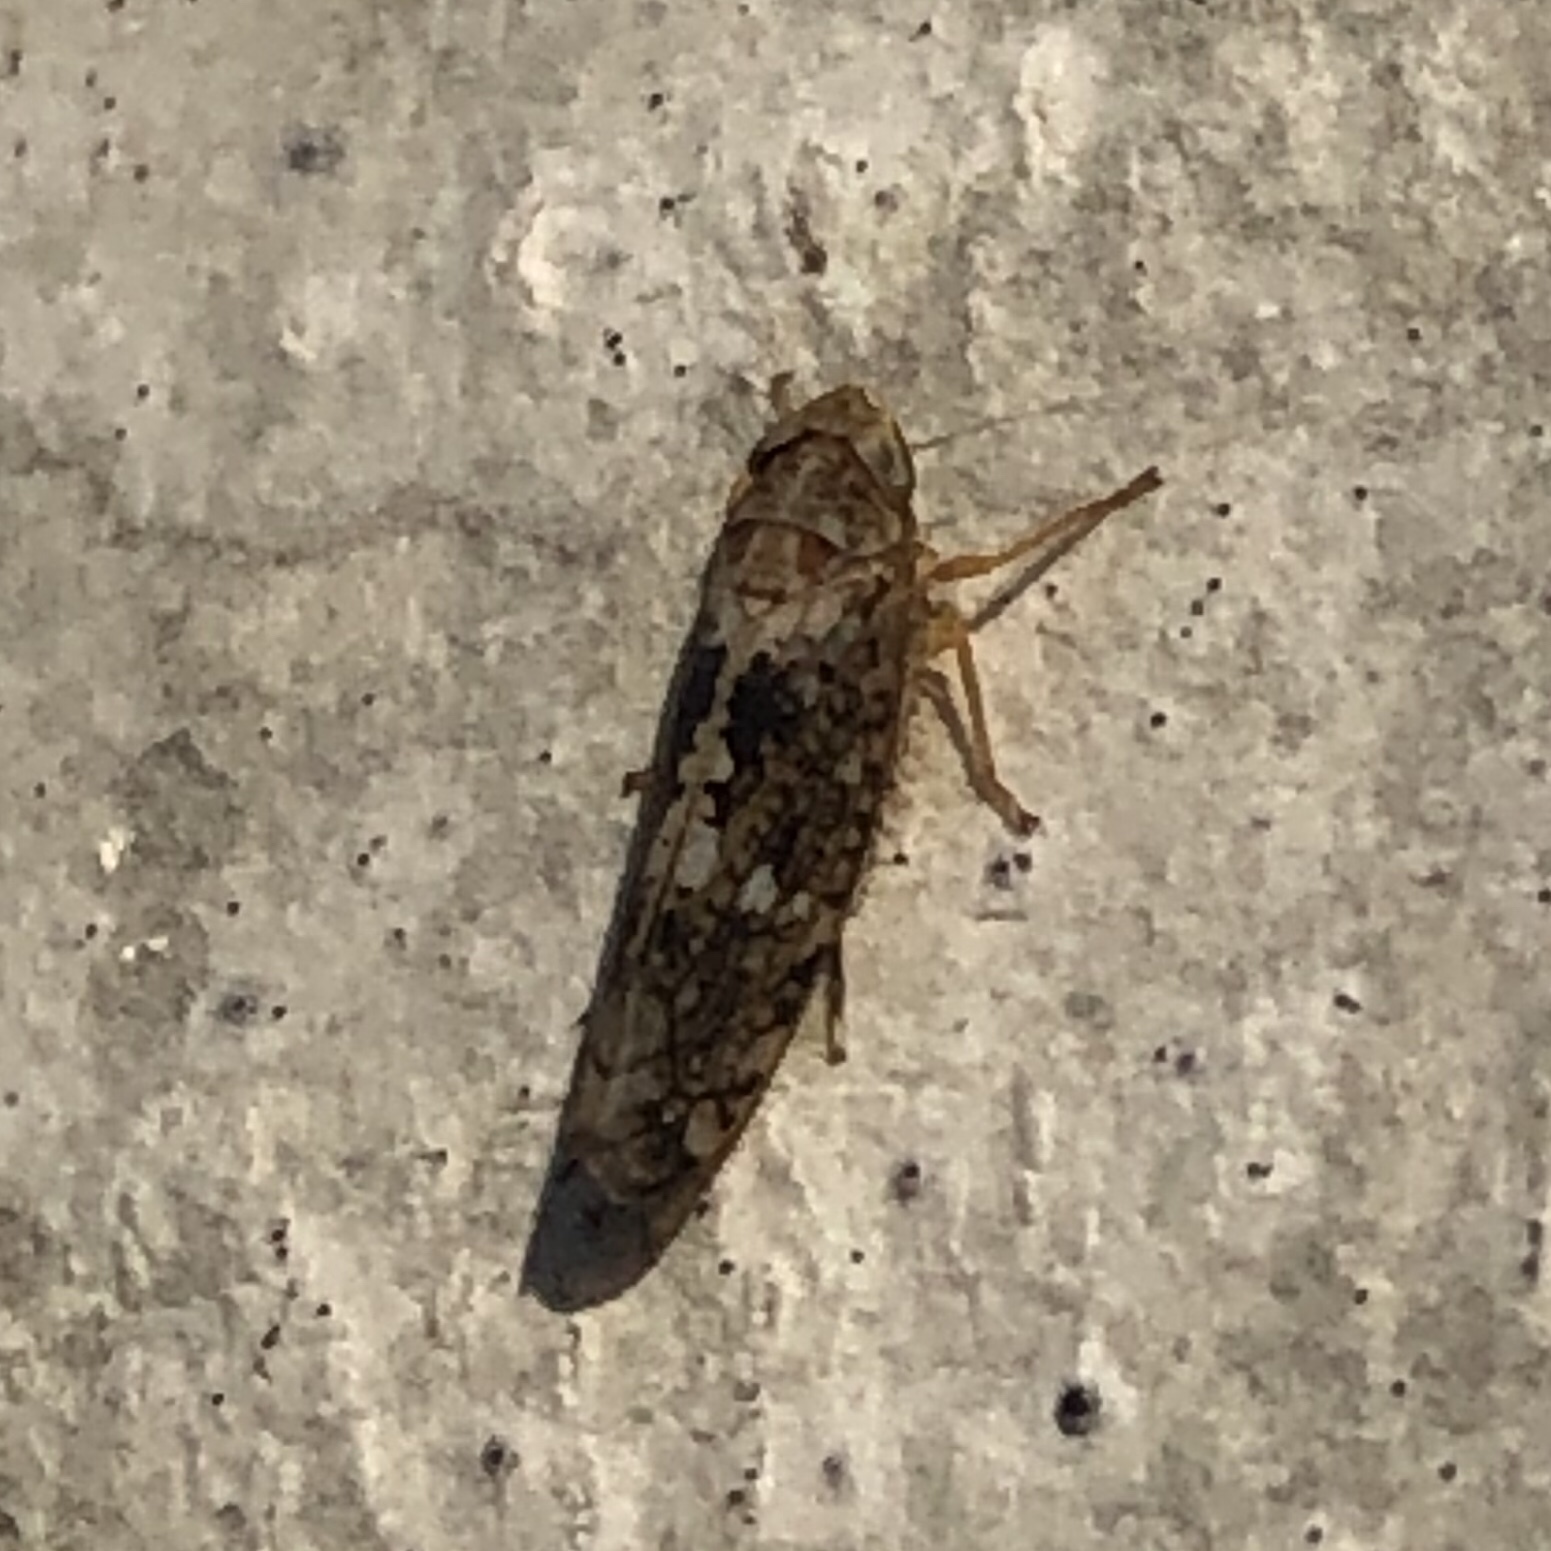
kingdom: Animalia
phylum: Arthropoda
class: Insecta
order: Hemiptera
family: Cicadellidae
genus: Prescottia
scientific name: Prescottia lobata
